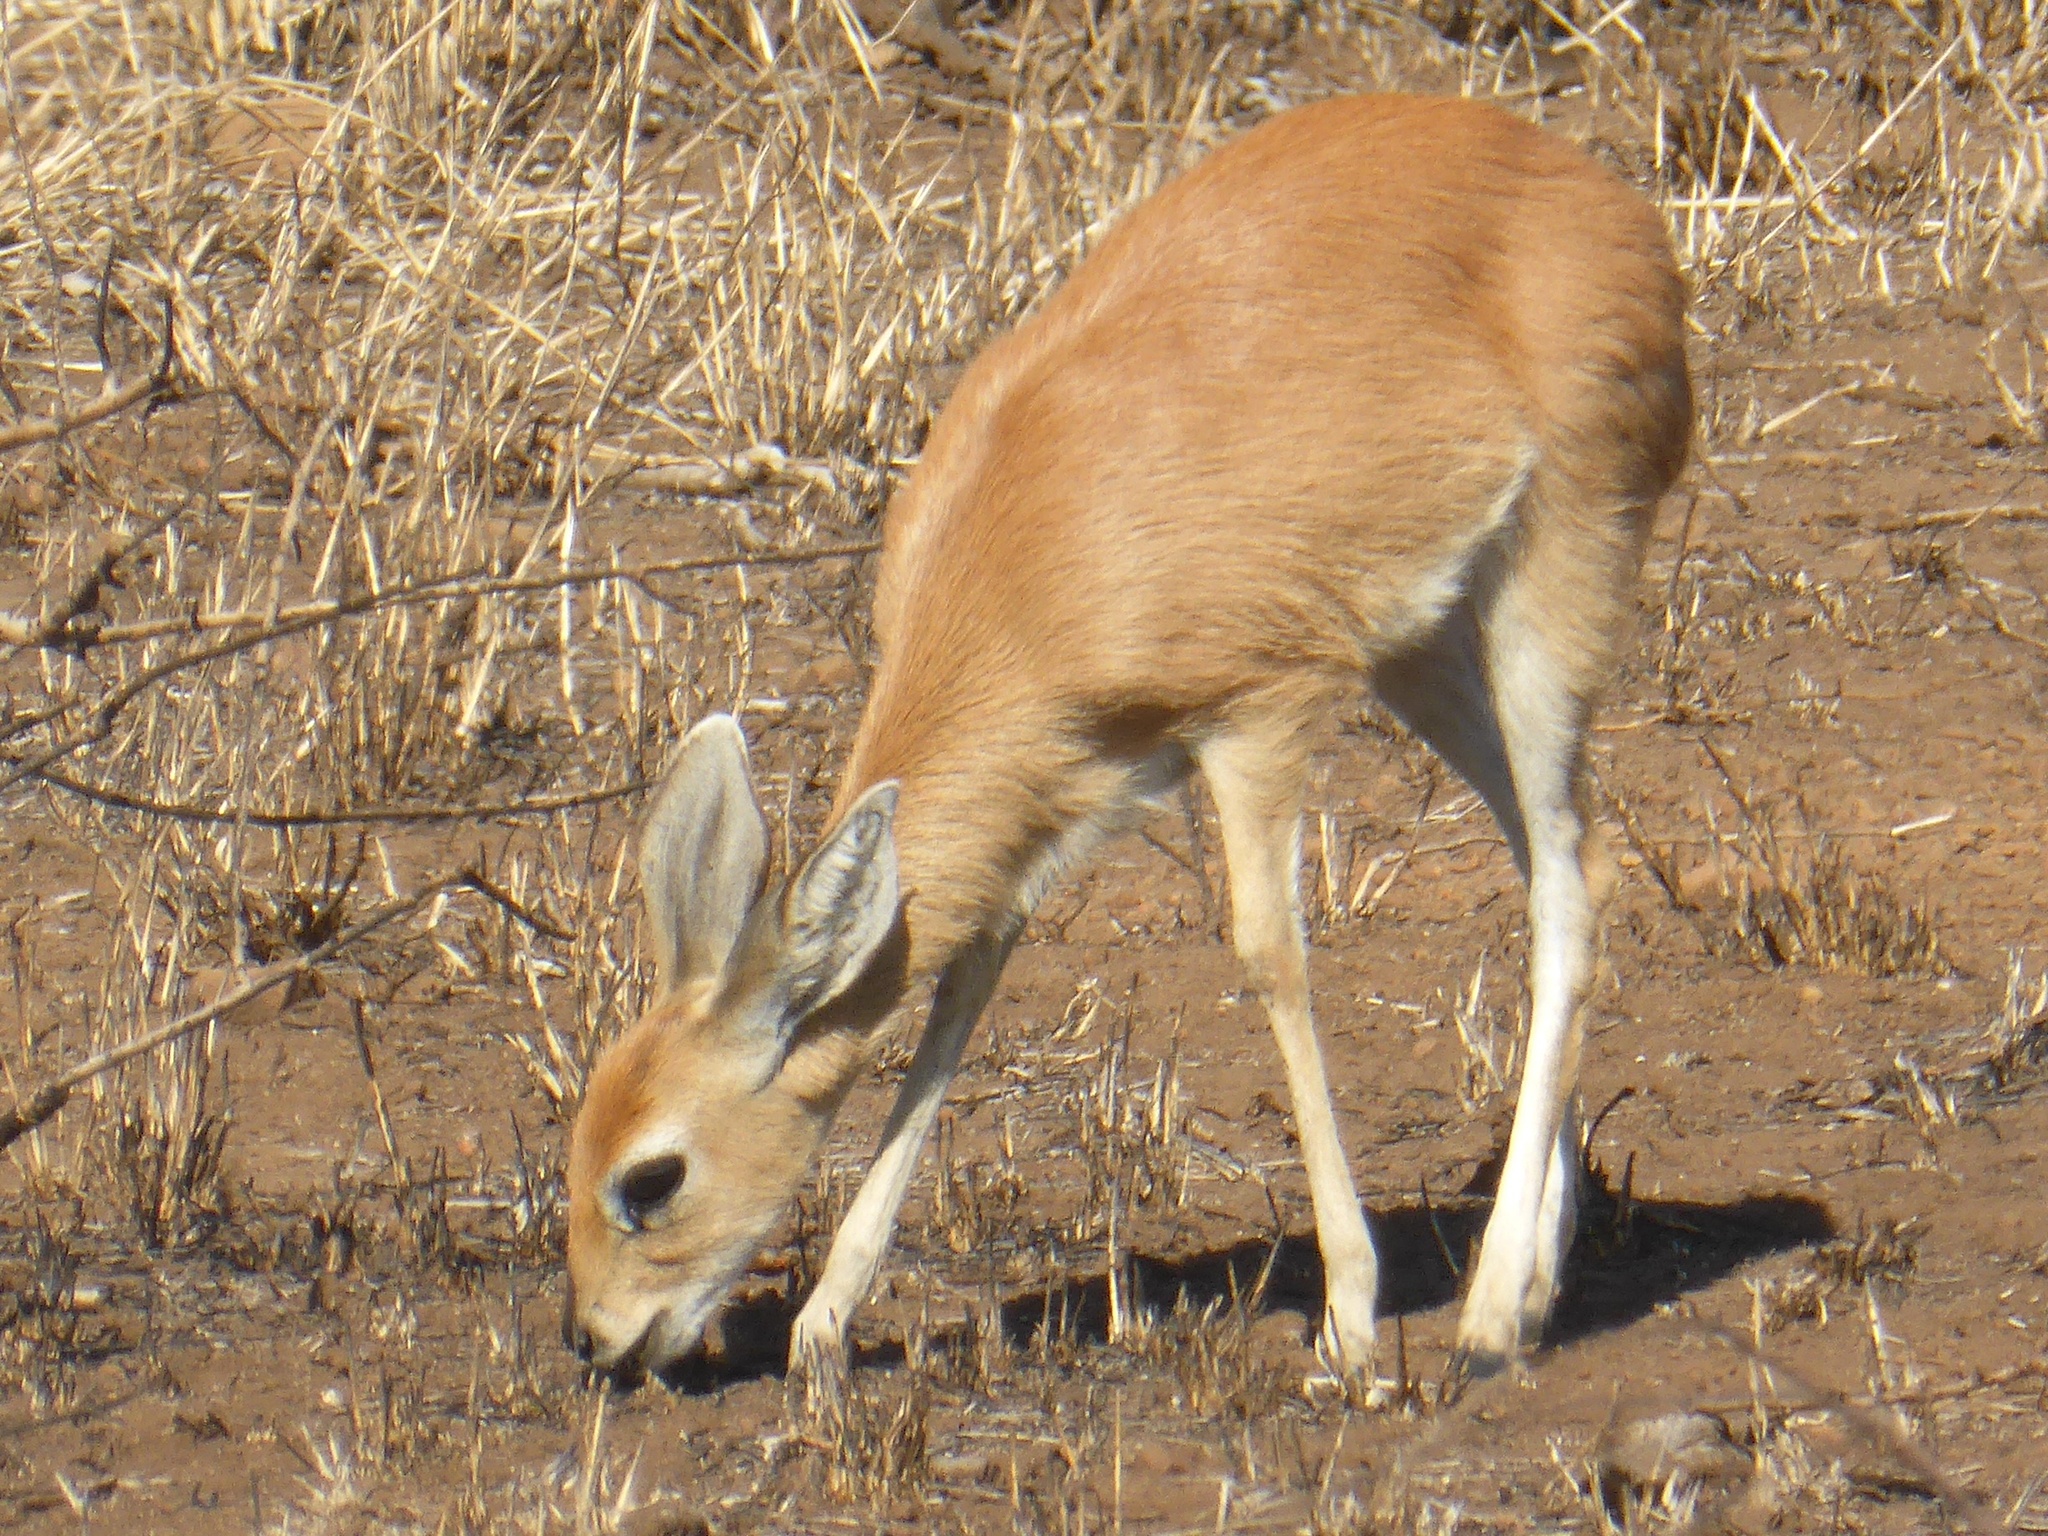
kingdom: Animalia
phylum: Chordata
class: Mammalia
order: Artiodactyla
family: Bovidae
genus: Raphicerus
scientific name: Raphicerus campestris
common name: Steenbok
